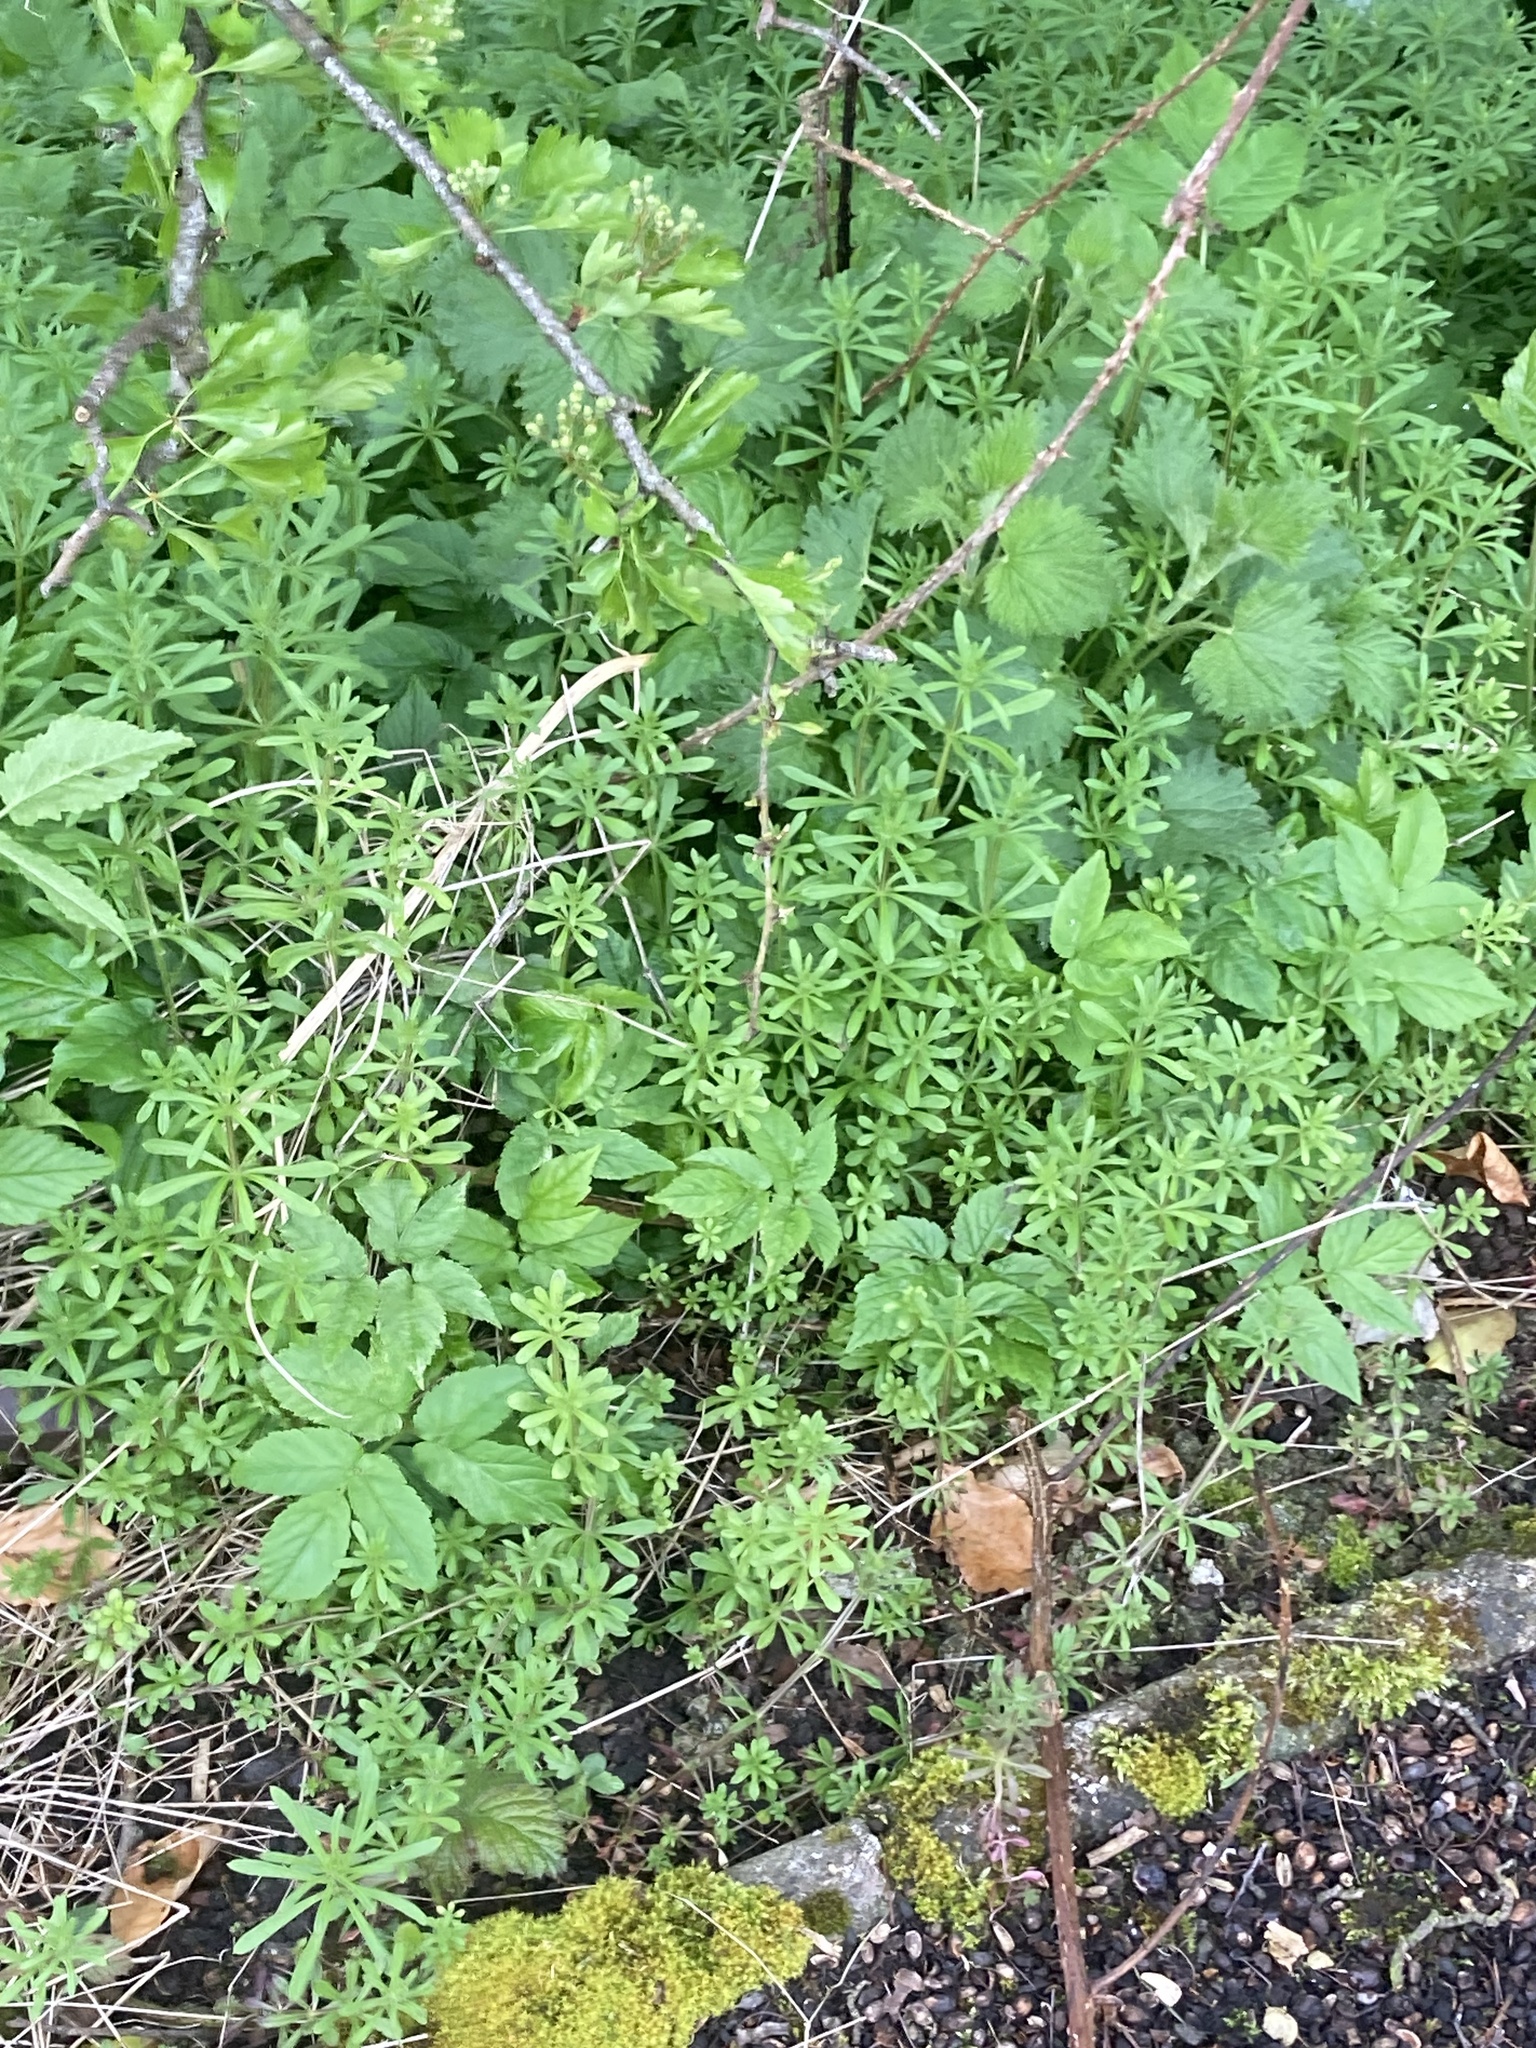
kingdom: Plantae
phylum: Tracheophyta
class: Magnoliopsida
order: Gentianales
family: Rubiaceae
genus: Galium
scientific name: Galium aparine
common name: Cleavers
